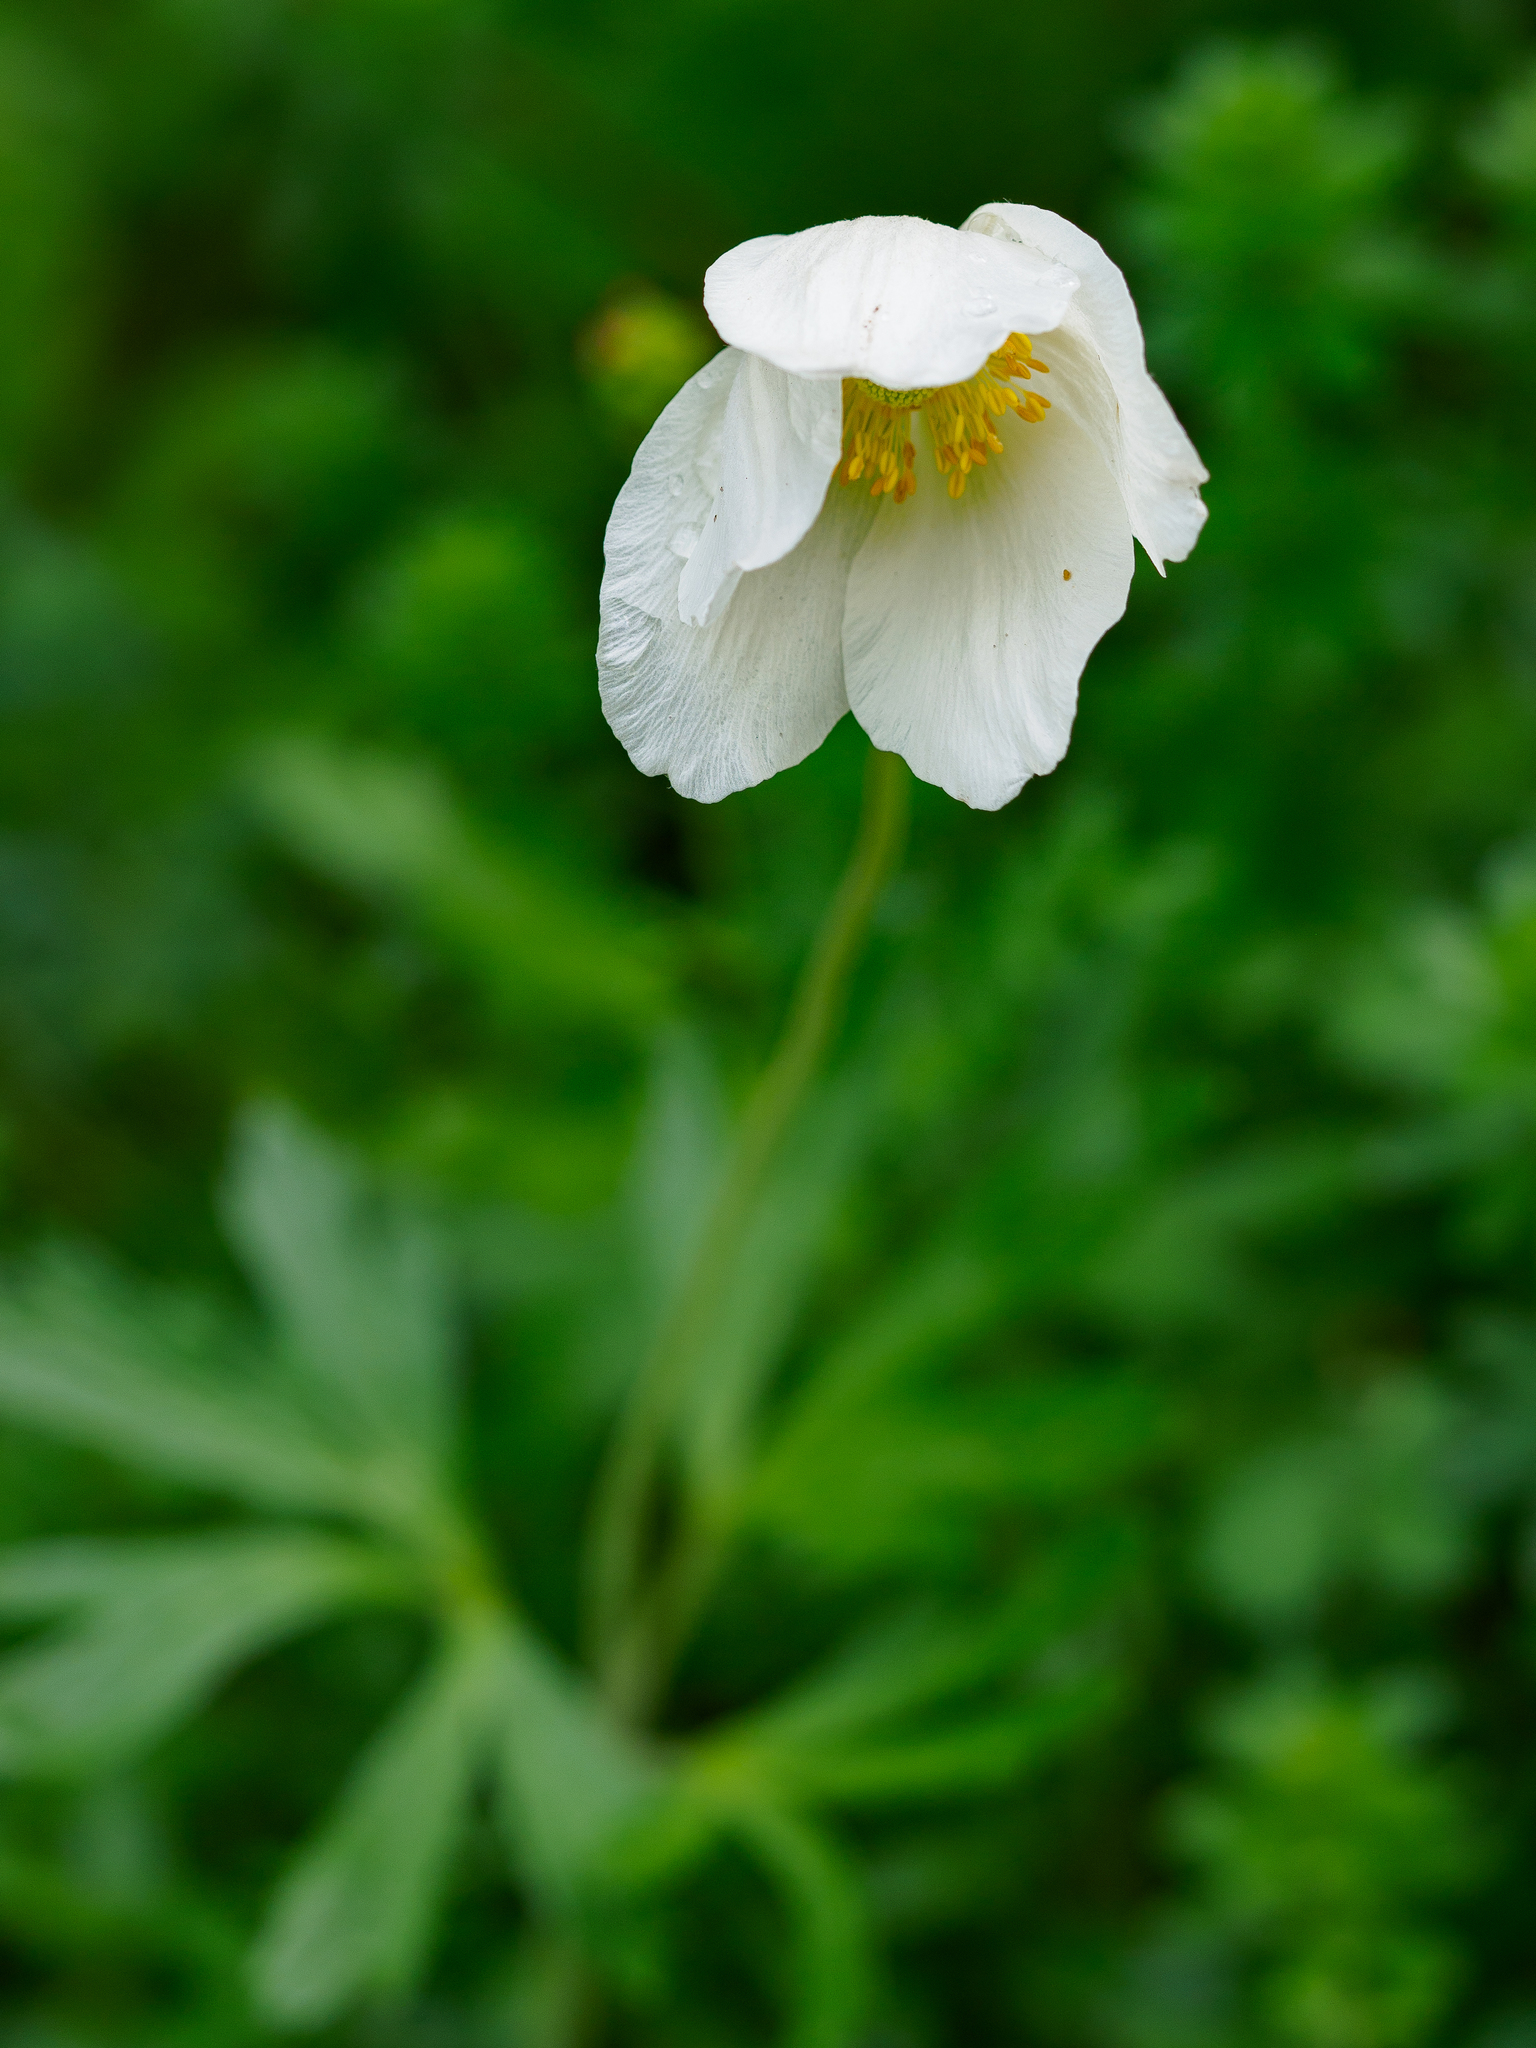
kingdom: Plantae
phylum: Tracheophyta
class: Magnoliopsida
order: Ranunculales
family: Ranunculaceae
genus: Anemone
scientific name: Anemone sylvestris
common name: Snowdrop anemone
